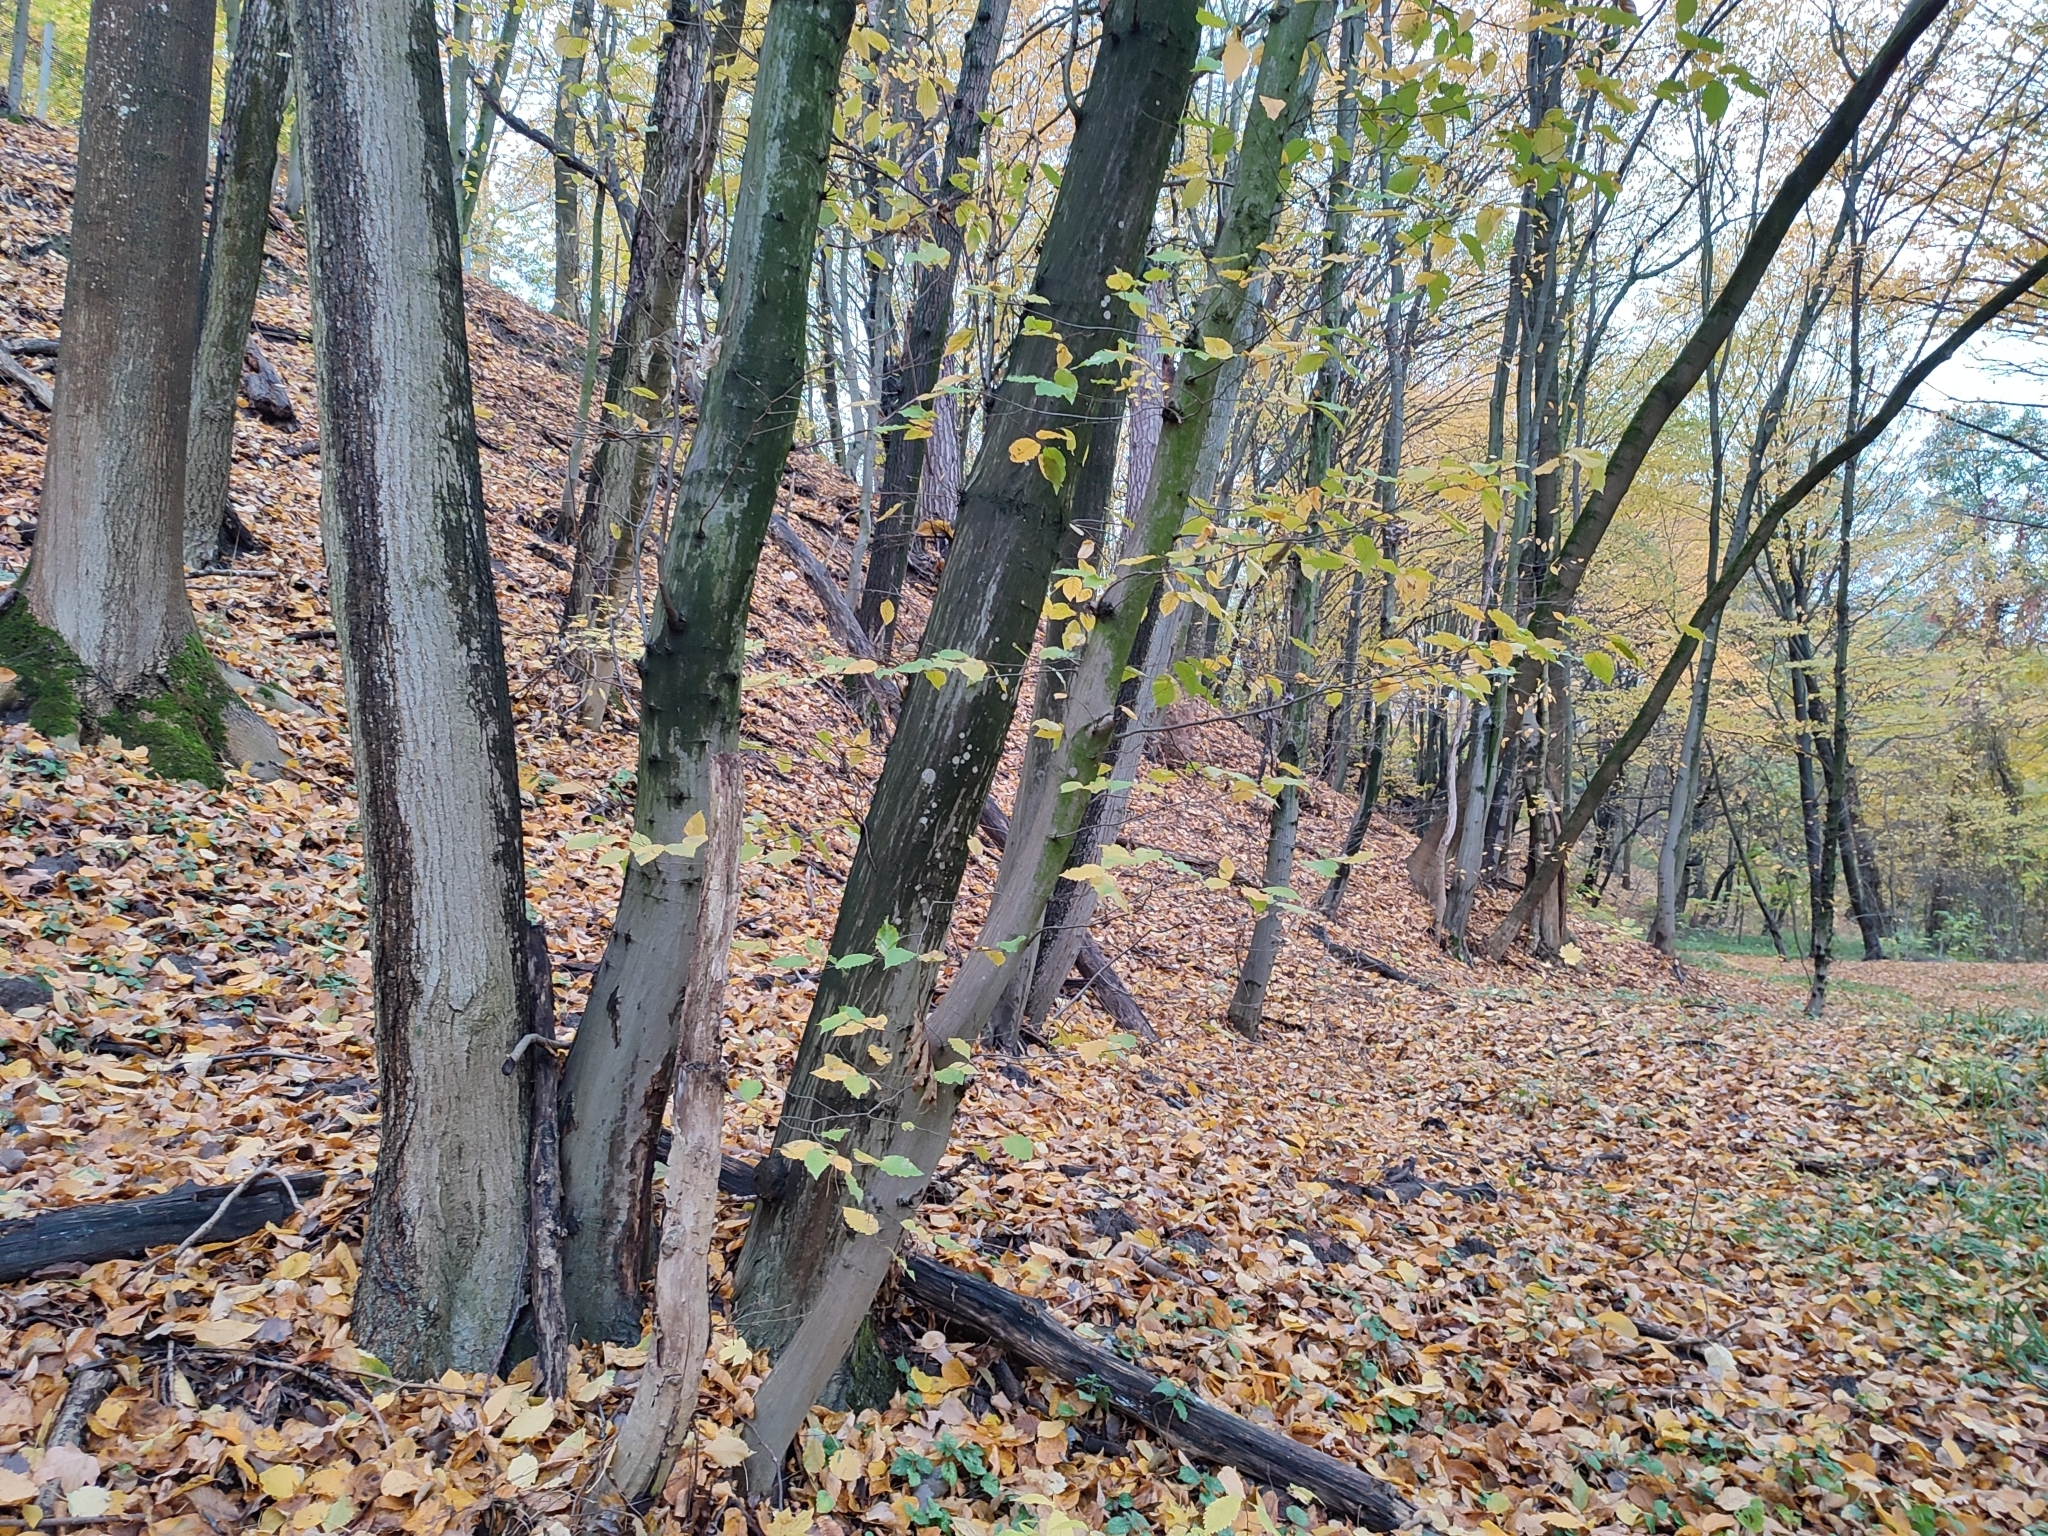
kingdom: Plantae
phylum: Tracheophyta
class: Magnoliopsida
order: Fagales
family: Betulaceae
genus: Carpinus
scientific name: Carpinus betulus
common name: Hornbeam
